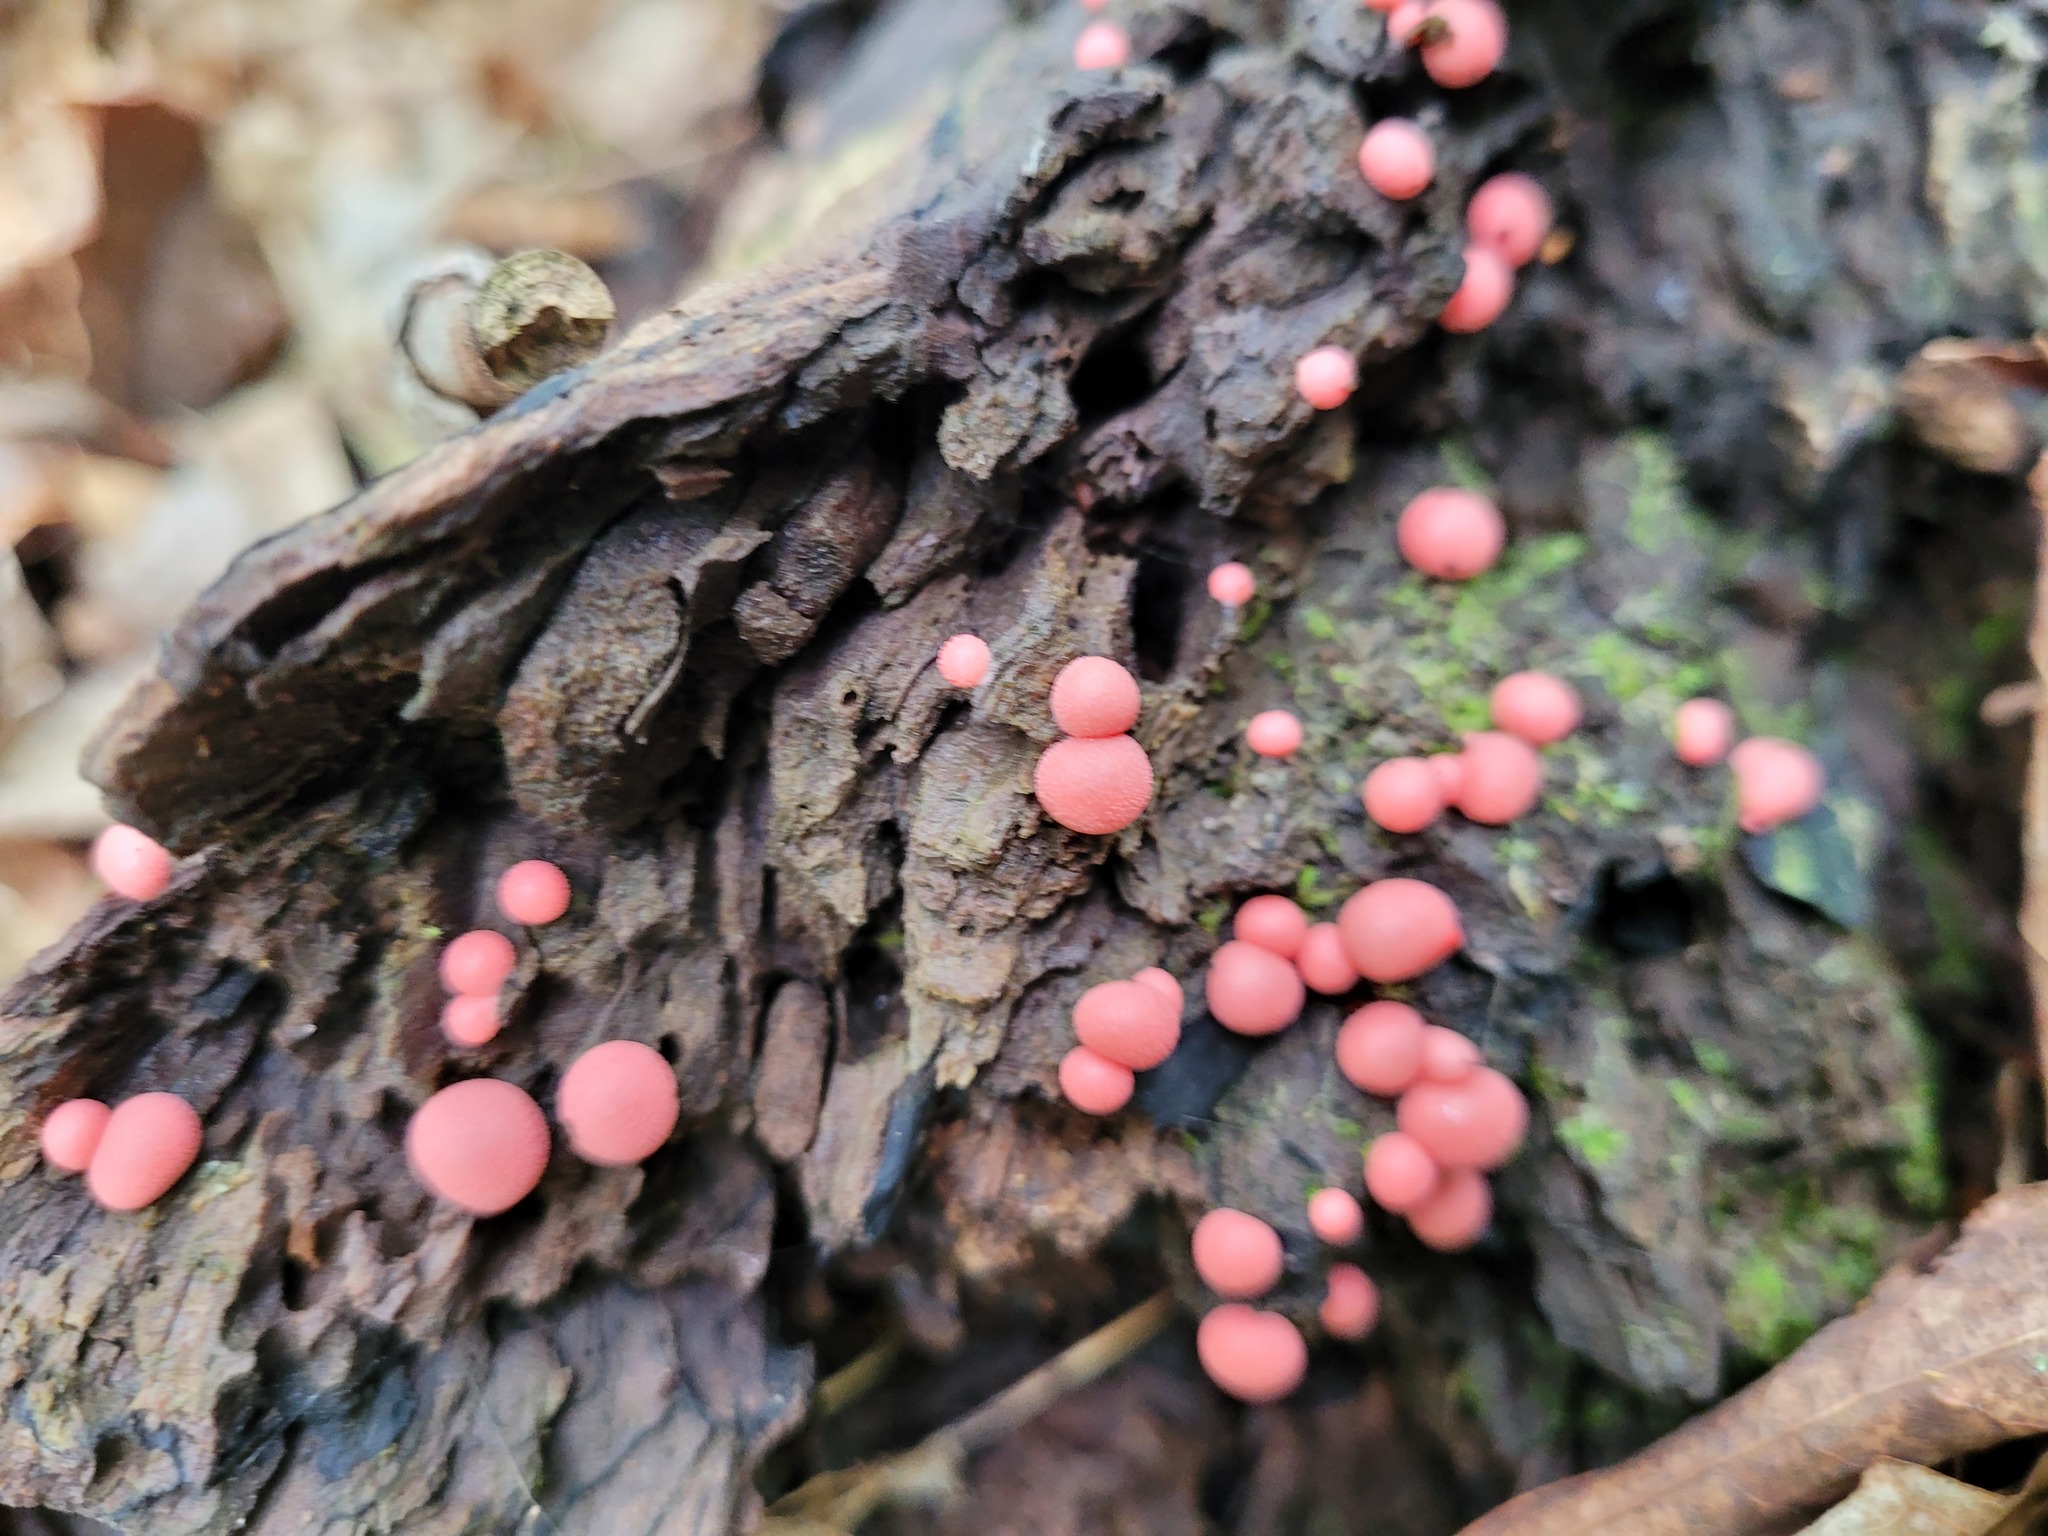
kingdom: Protozoa
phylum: Mycetozoa
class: Myxomycetes
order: Cribrariales
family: Tubiferaceae
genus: Lycogala
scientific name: Lycogala epidendrum
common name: Wolf's milk
